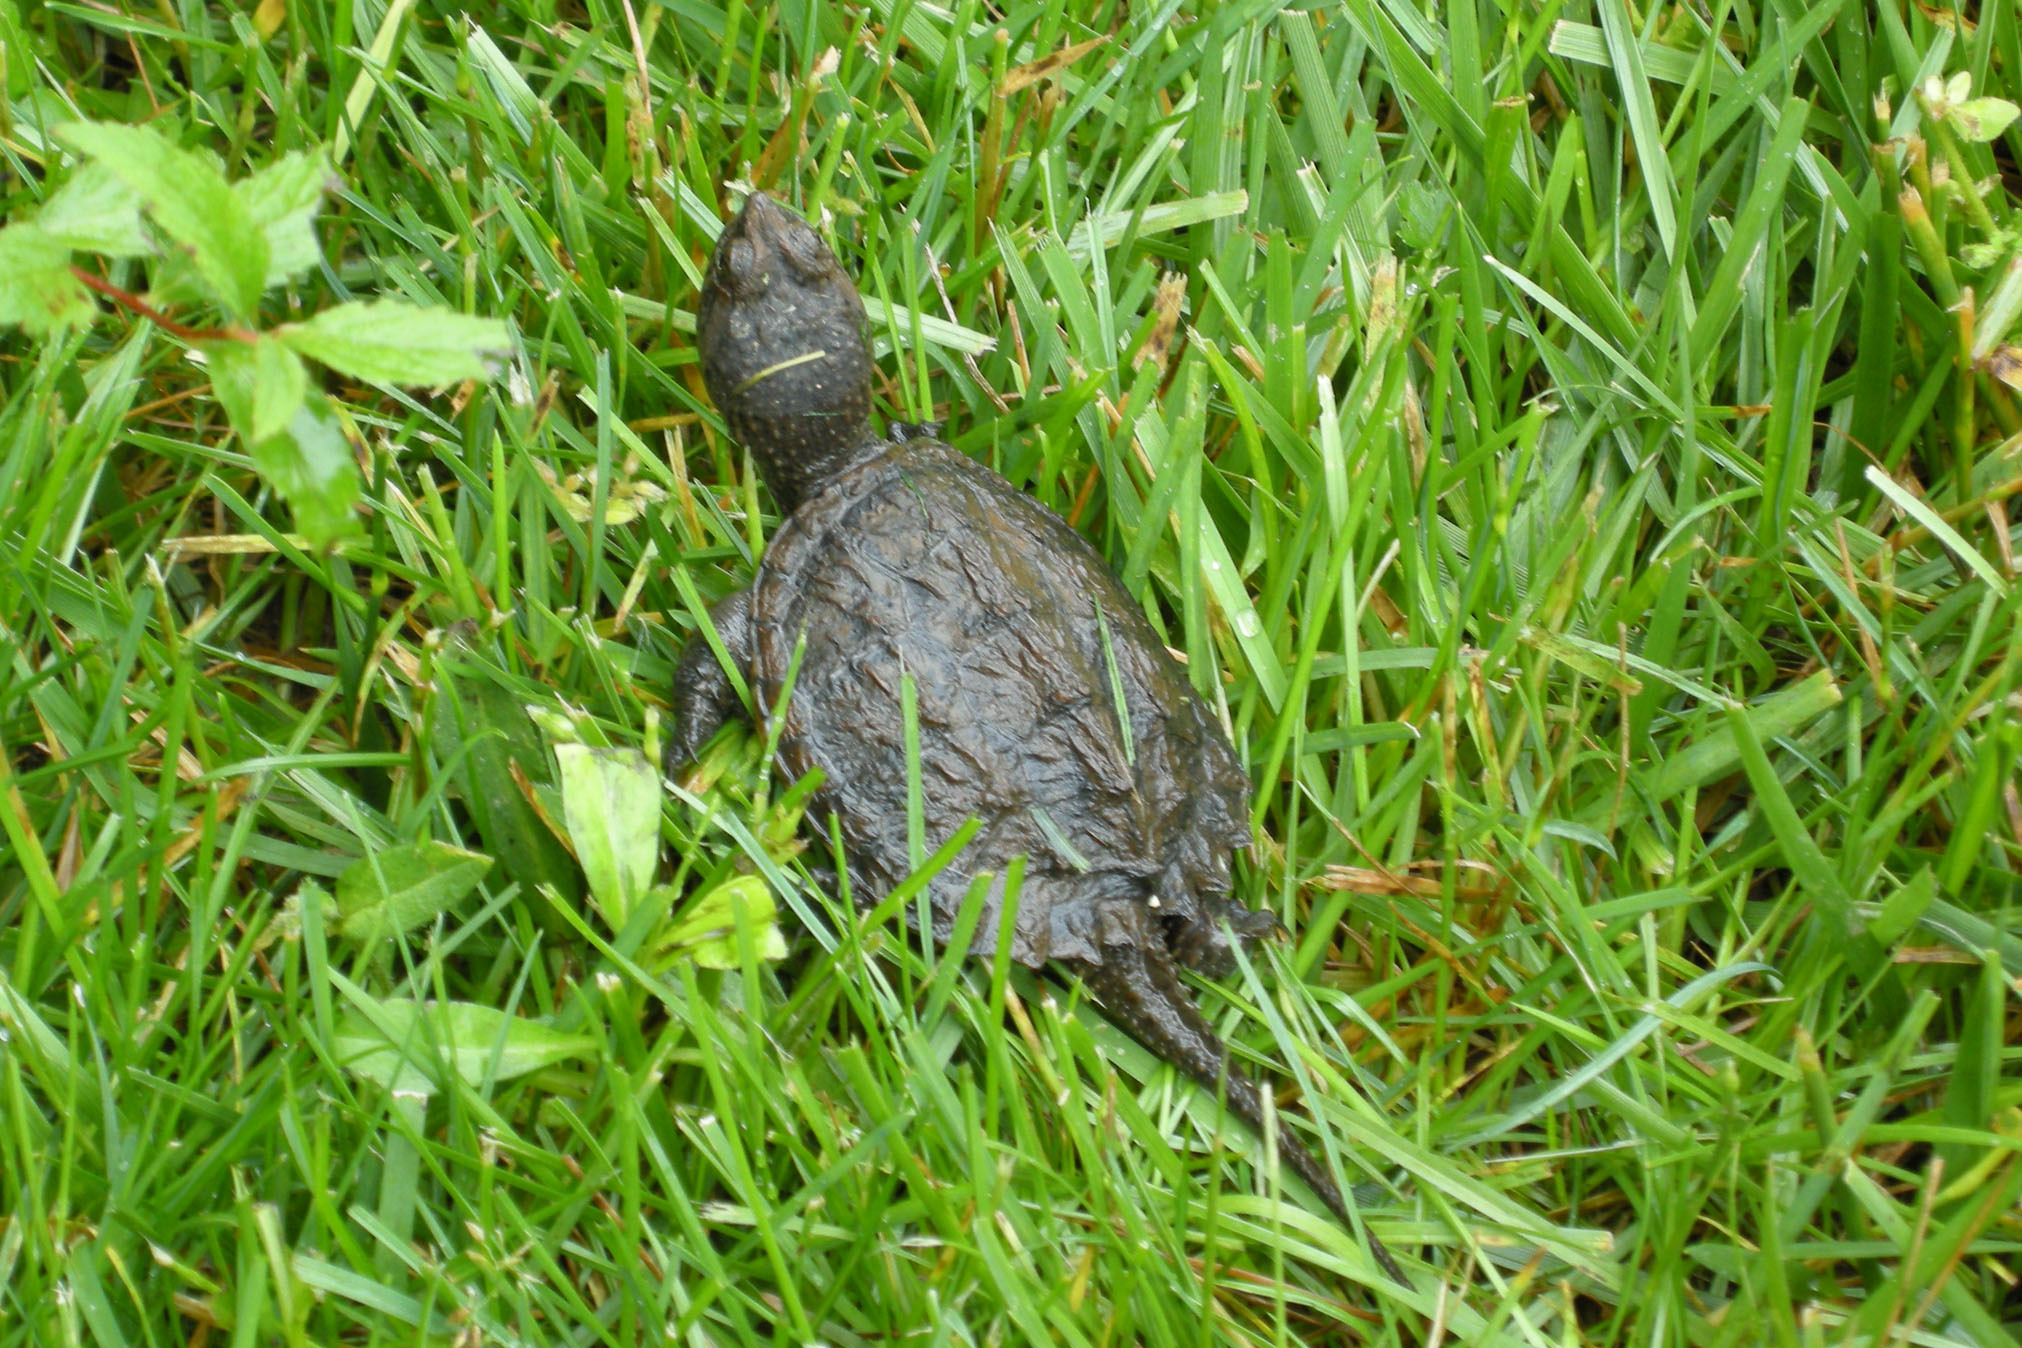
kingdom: Animalia
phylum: Chordata
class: Testudines
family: Chelydridae
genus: Chelydra
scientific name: Chelydra serpentina
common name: Common snapping turtle
